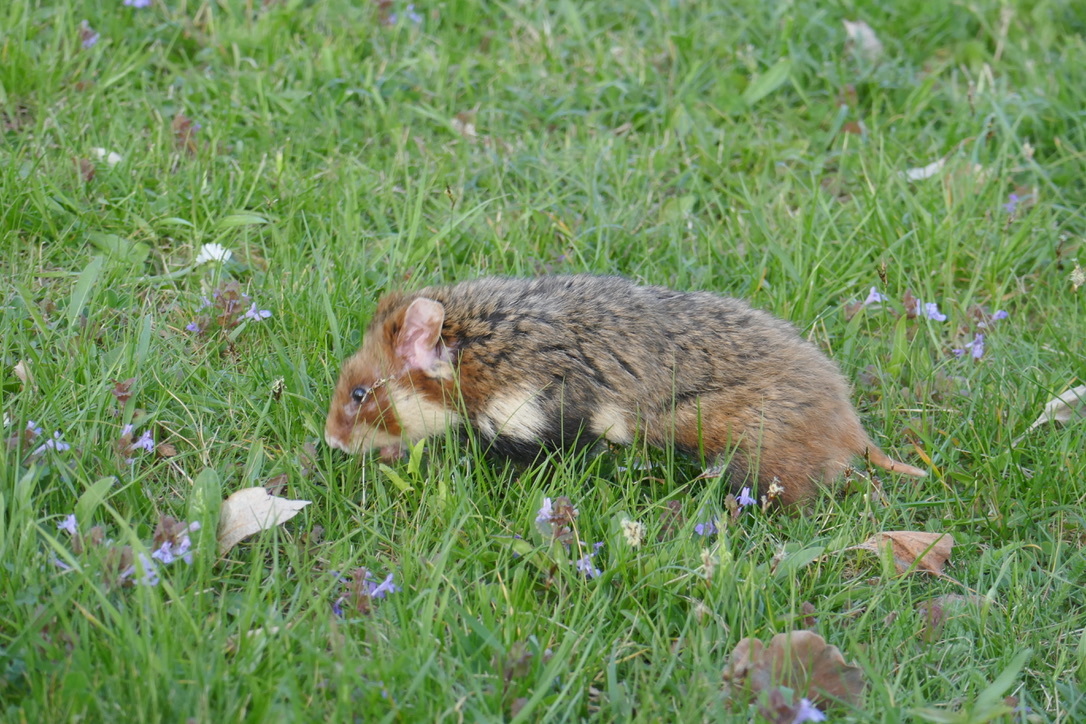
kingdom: Animalia
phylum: Chordata
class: Mammalia
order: Rodentia
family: Cricetidae
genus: Cricetus
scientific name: Cricetus cricetus
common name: Common hamster
